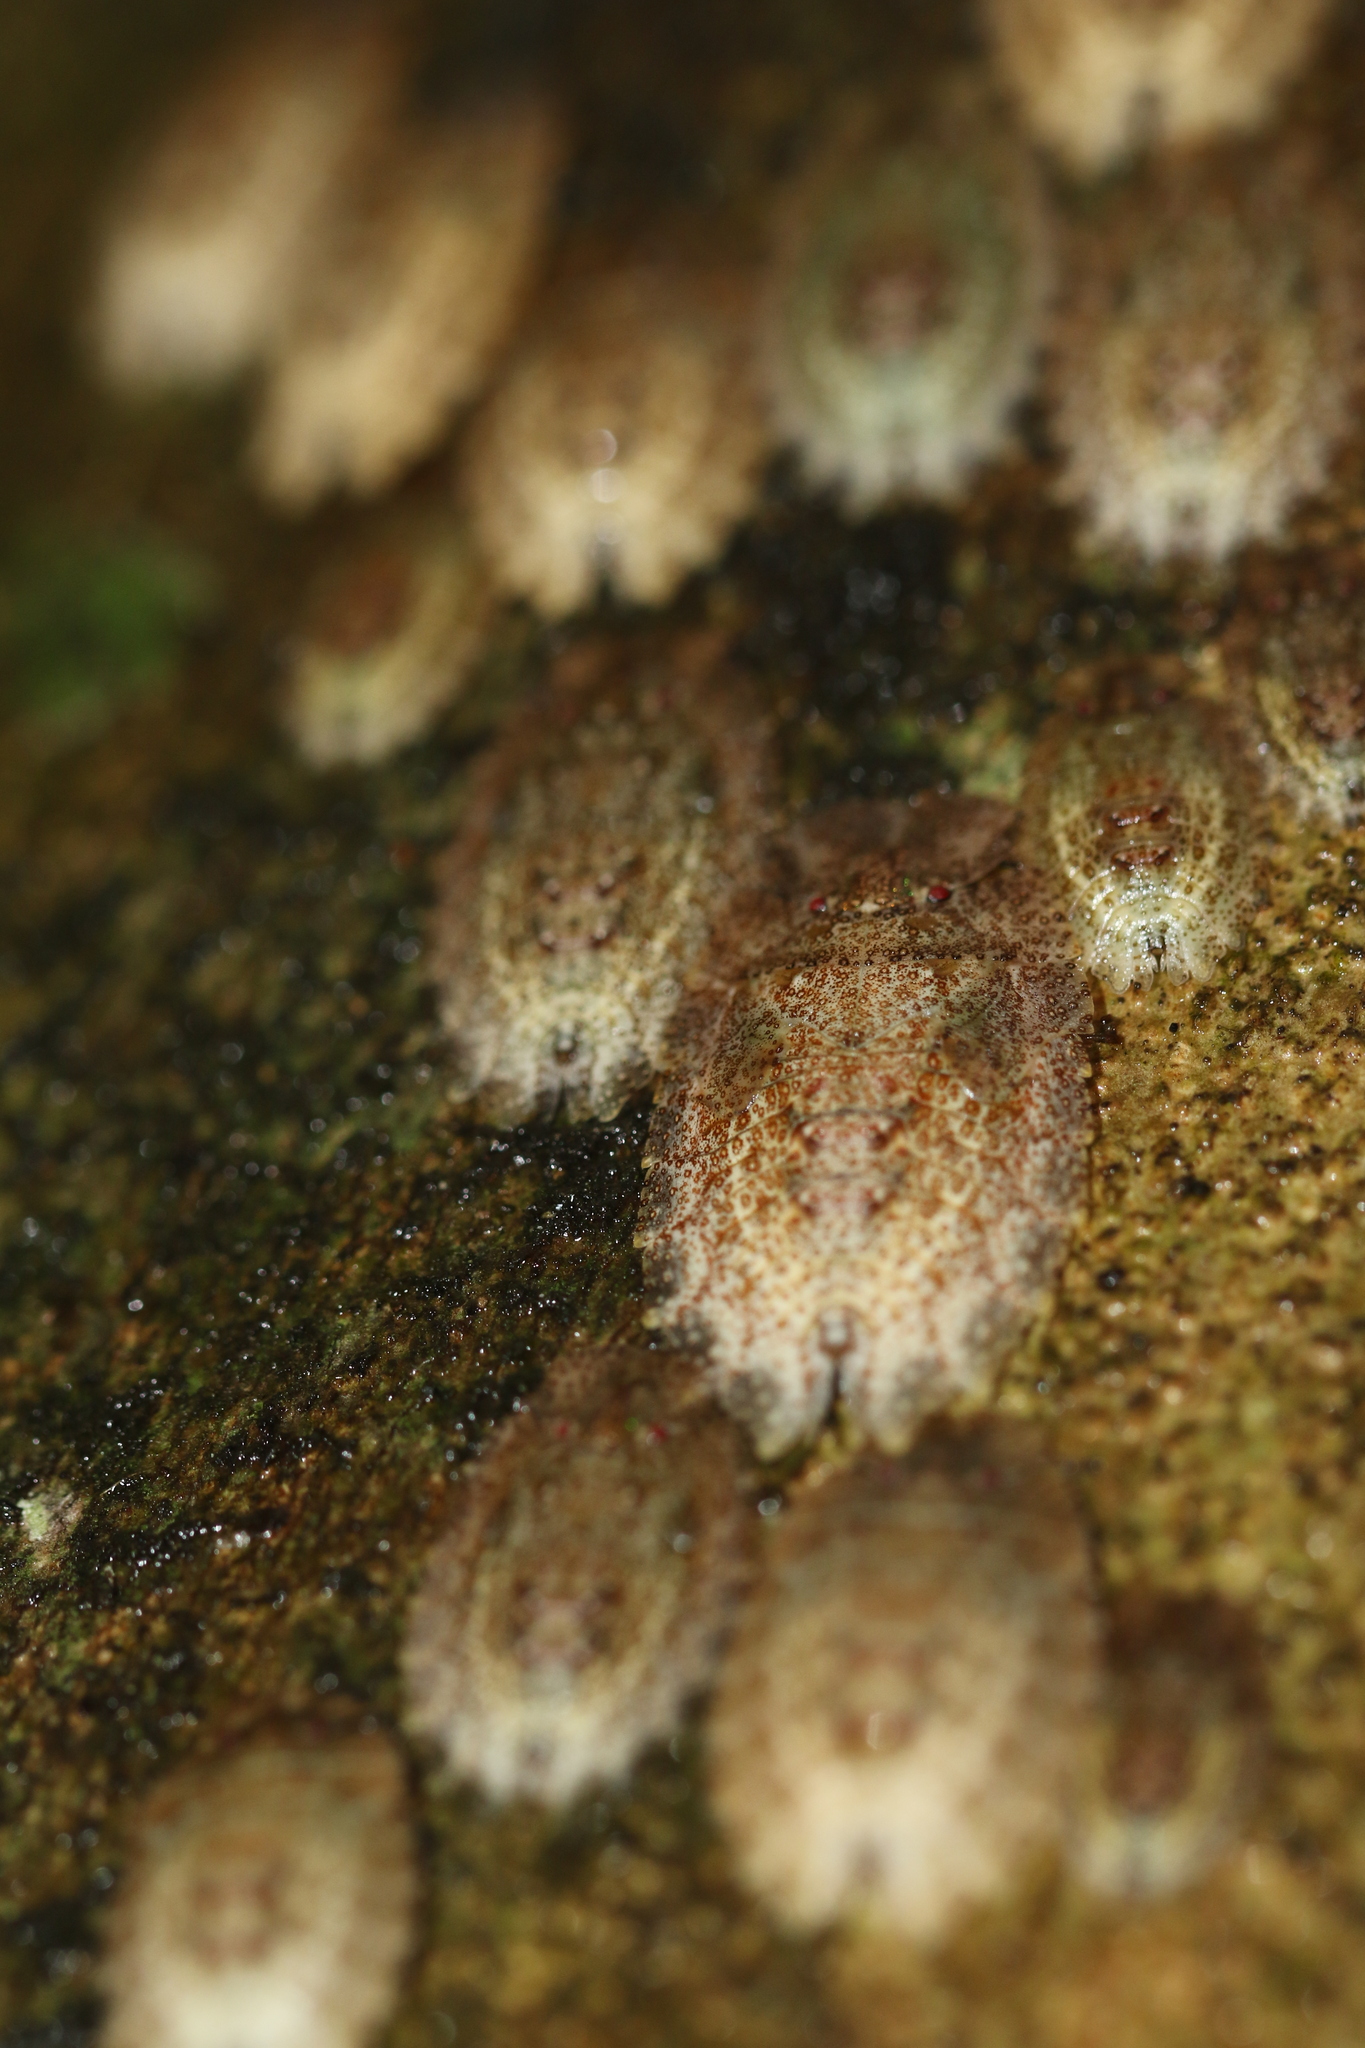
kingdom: Animalia
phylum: Arthropoda
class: Insecta
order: Hemiptera
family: Phleides
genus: Phloea
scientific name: Phloea
